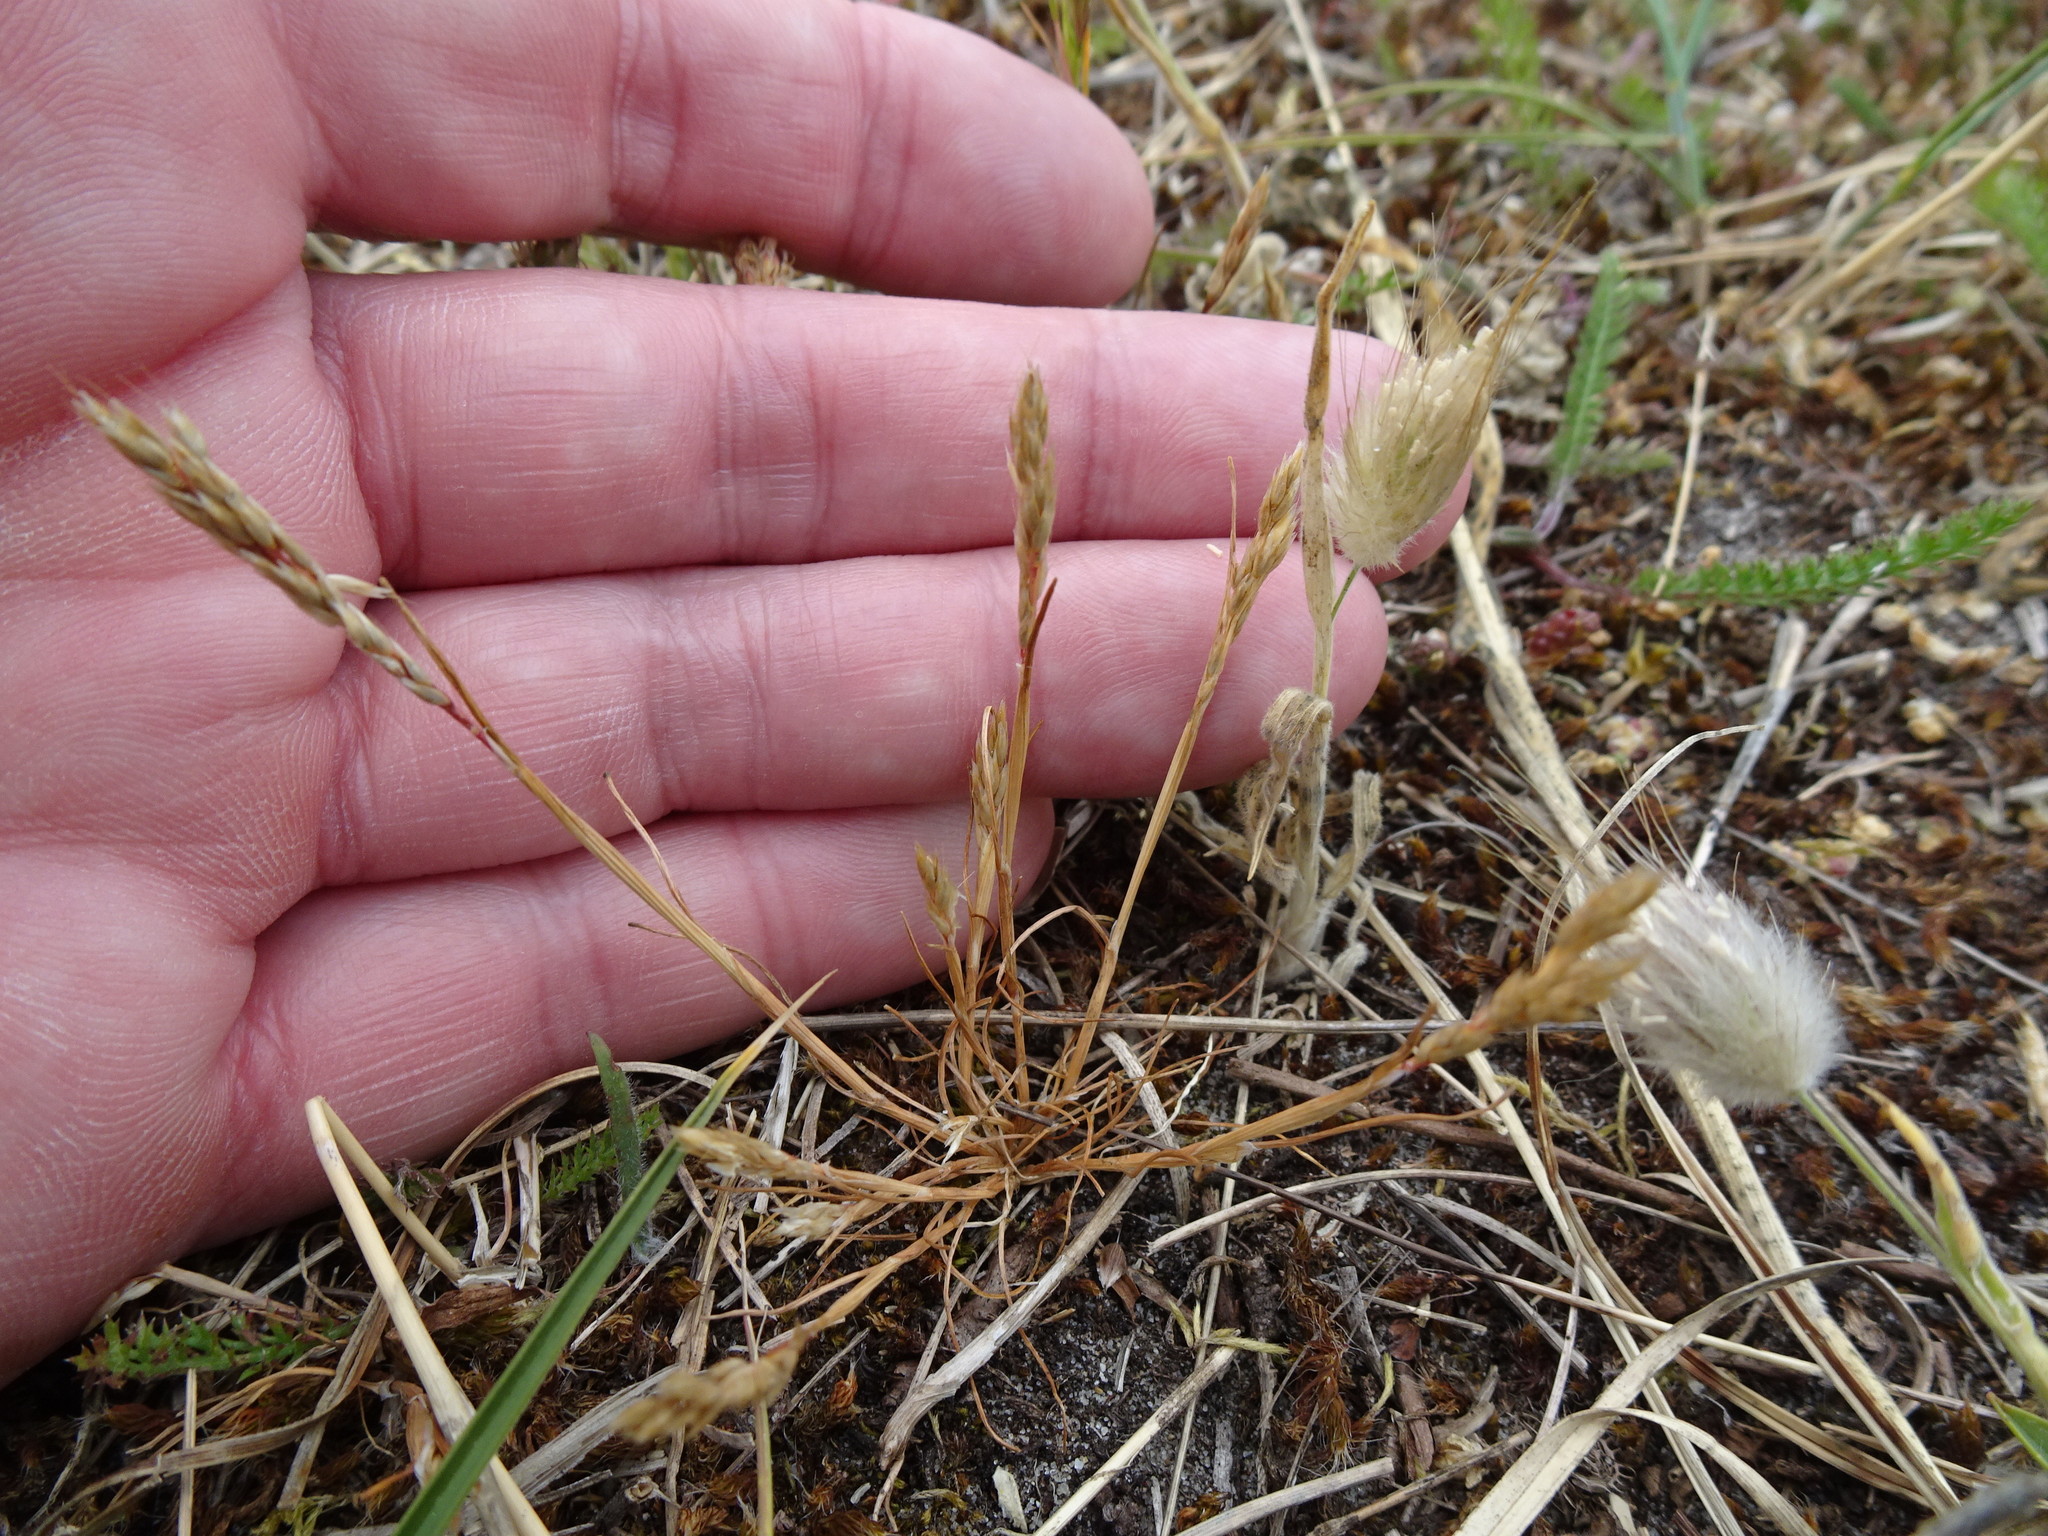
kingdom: Plantae
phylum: Tracheophyta
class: Liliopsida
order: Poales
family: Poaceae
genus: Aira
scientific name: Aira praecox
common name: Early hair-grass
